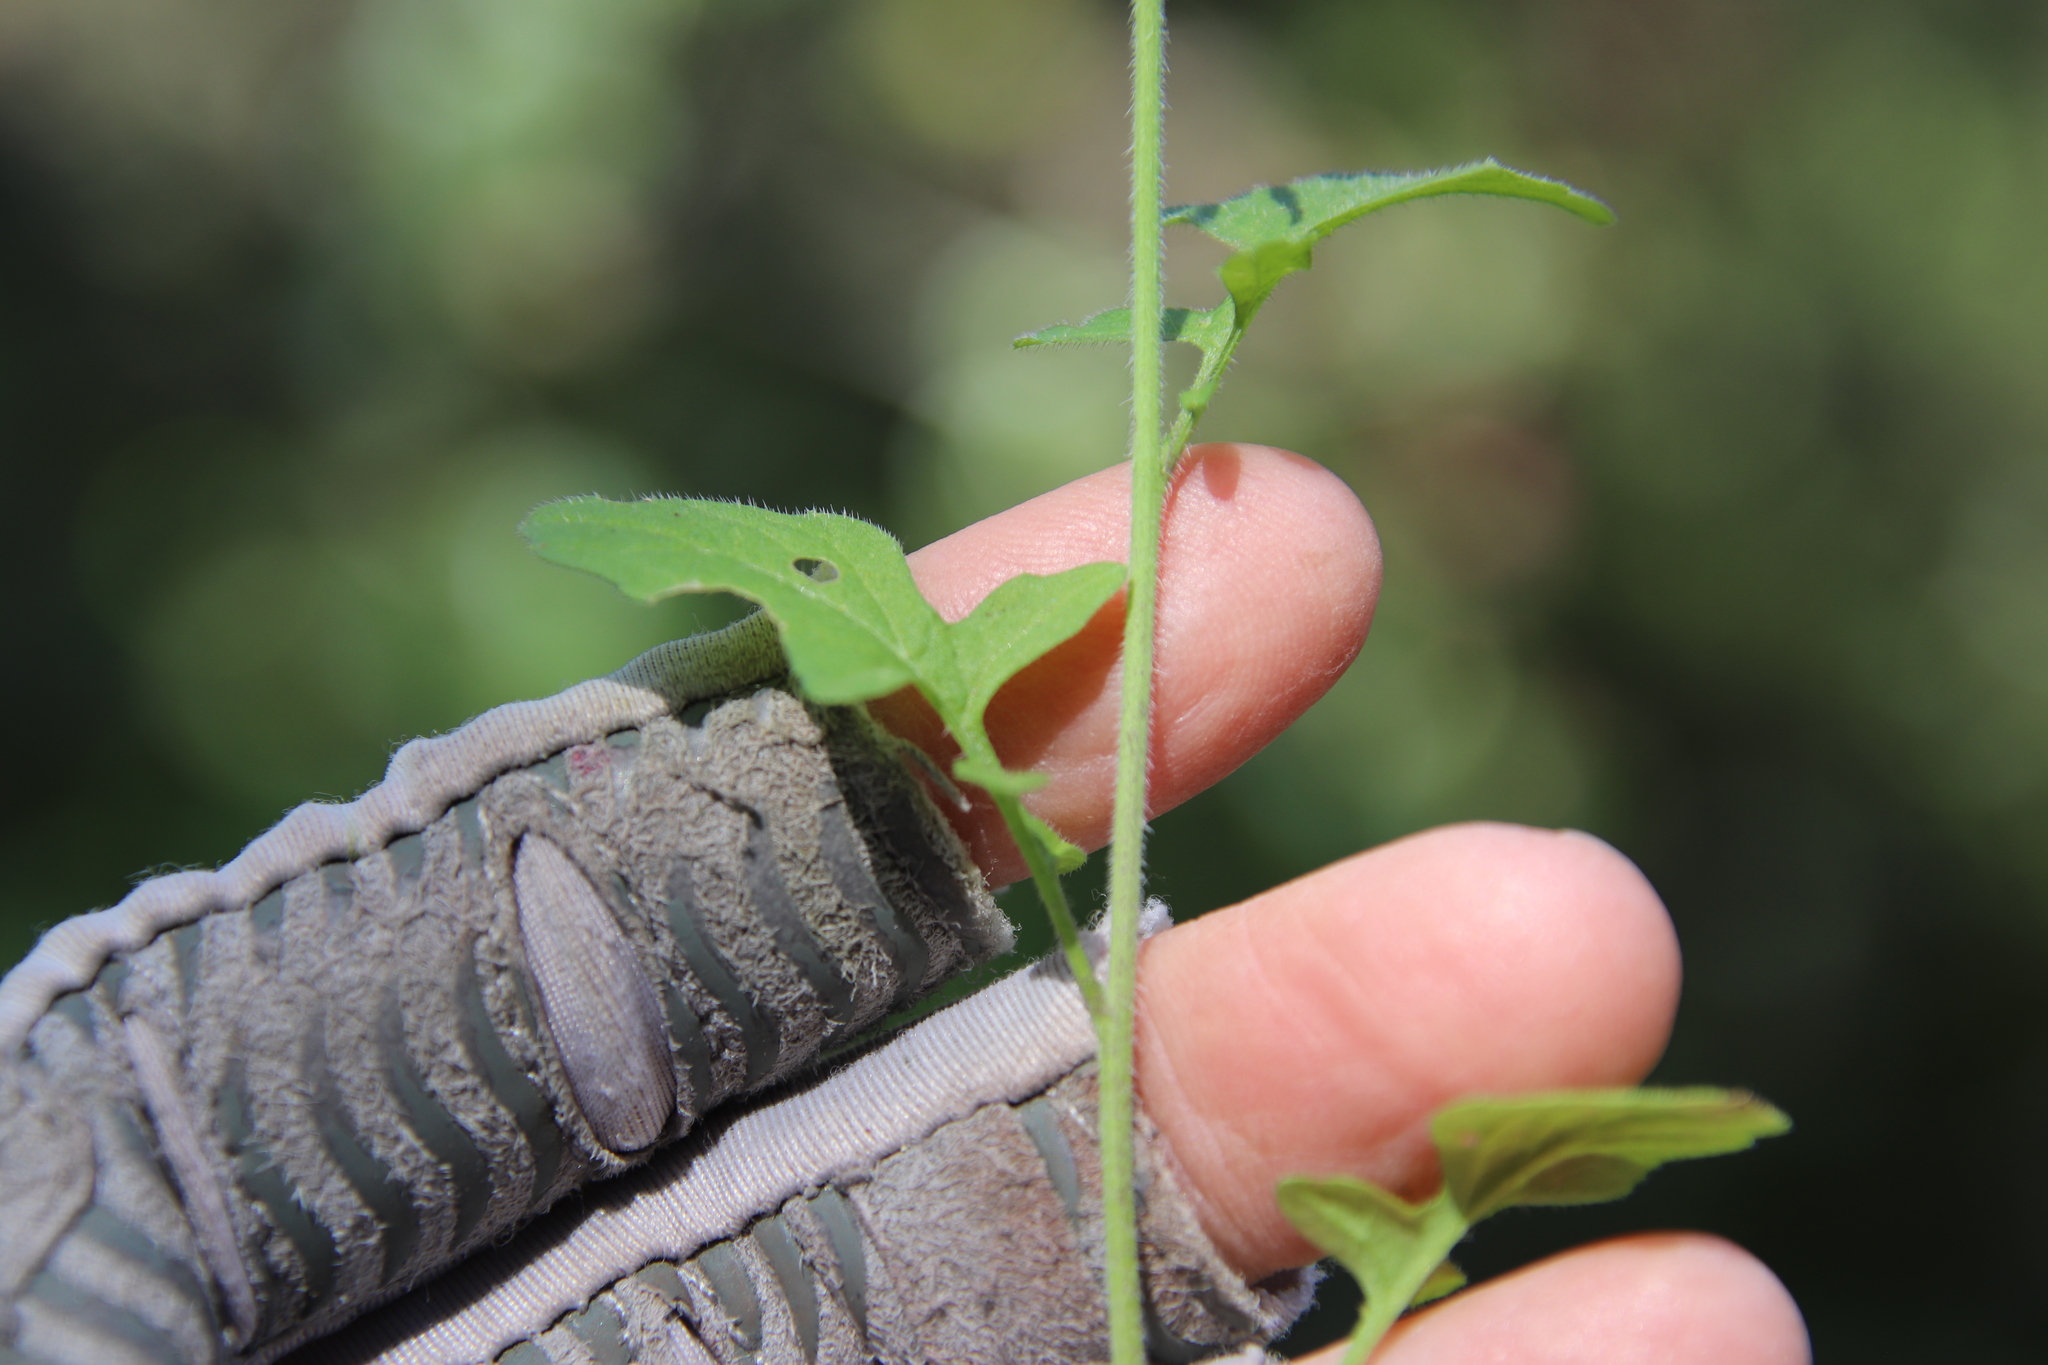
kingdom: Plantae
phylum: Tracheophyta
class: Magnoliopsida
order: Brassicales
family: Brassicaceae
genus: Sisymbrium
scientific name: Sisymbrium officinale
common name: Hedge mustard
